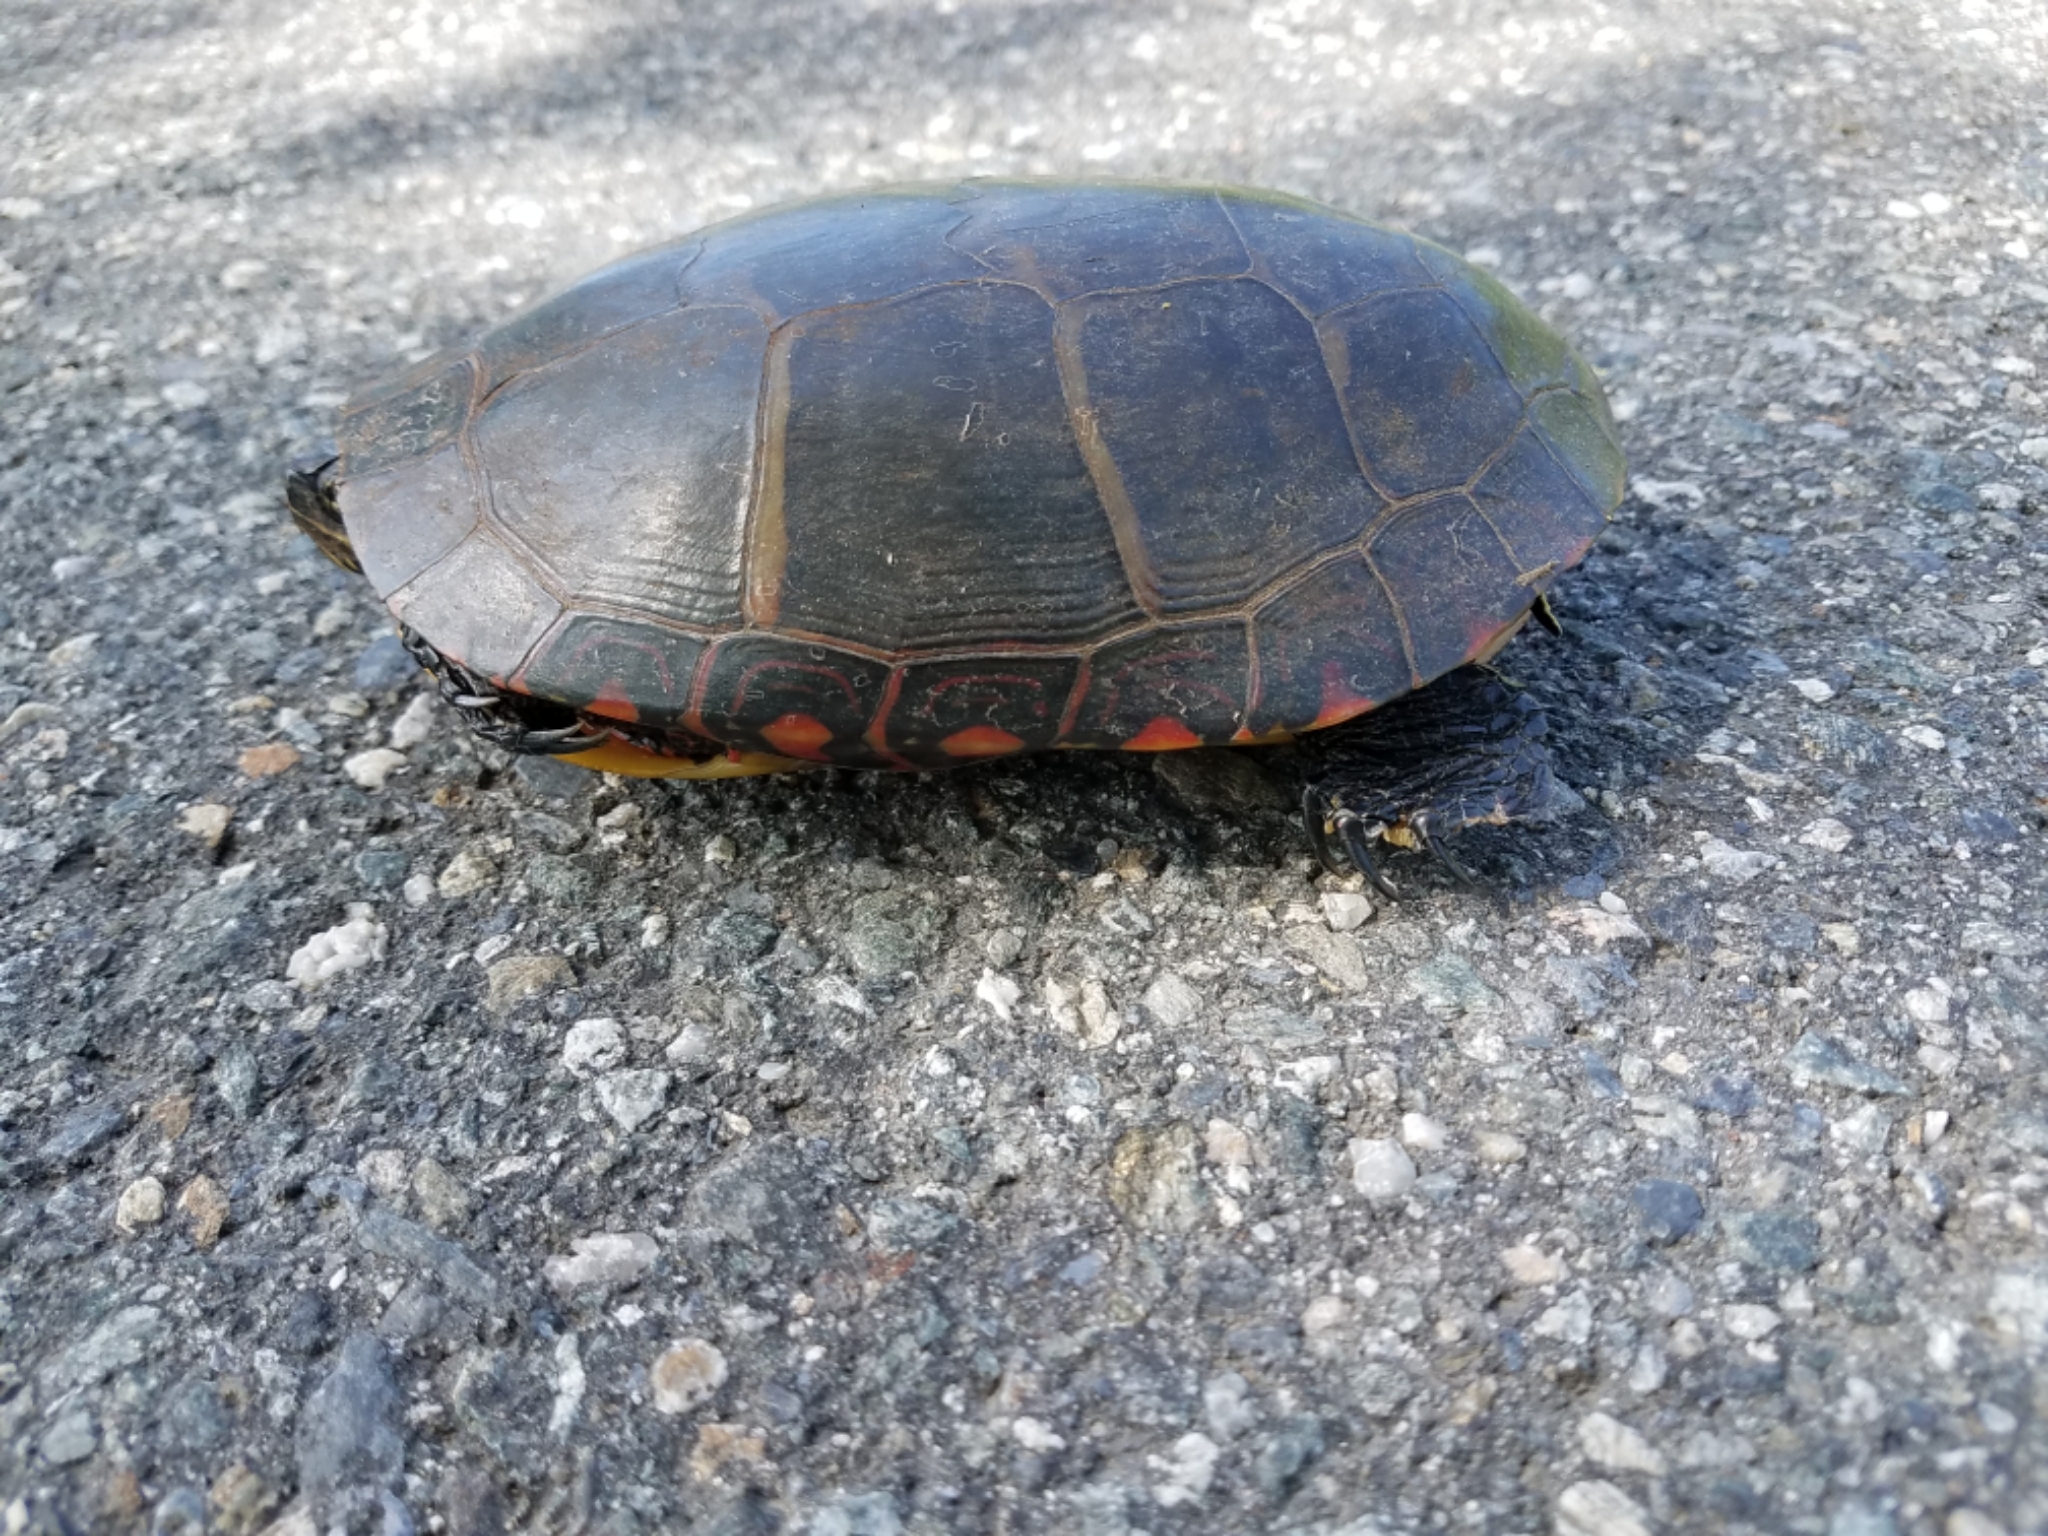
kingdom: Animalia
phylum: Chordata
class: Testudines
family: Emydidae
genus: Chrysemys
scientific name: Chrysemys picta
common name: Painted turtle
